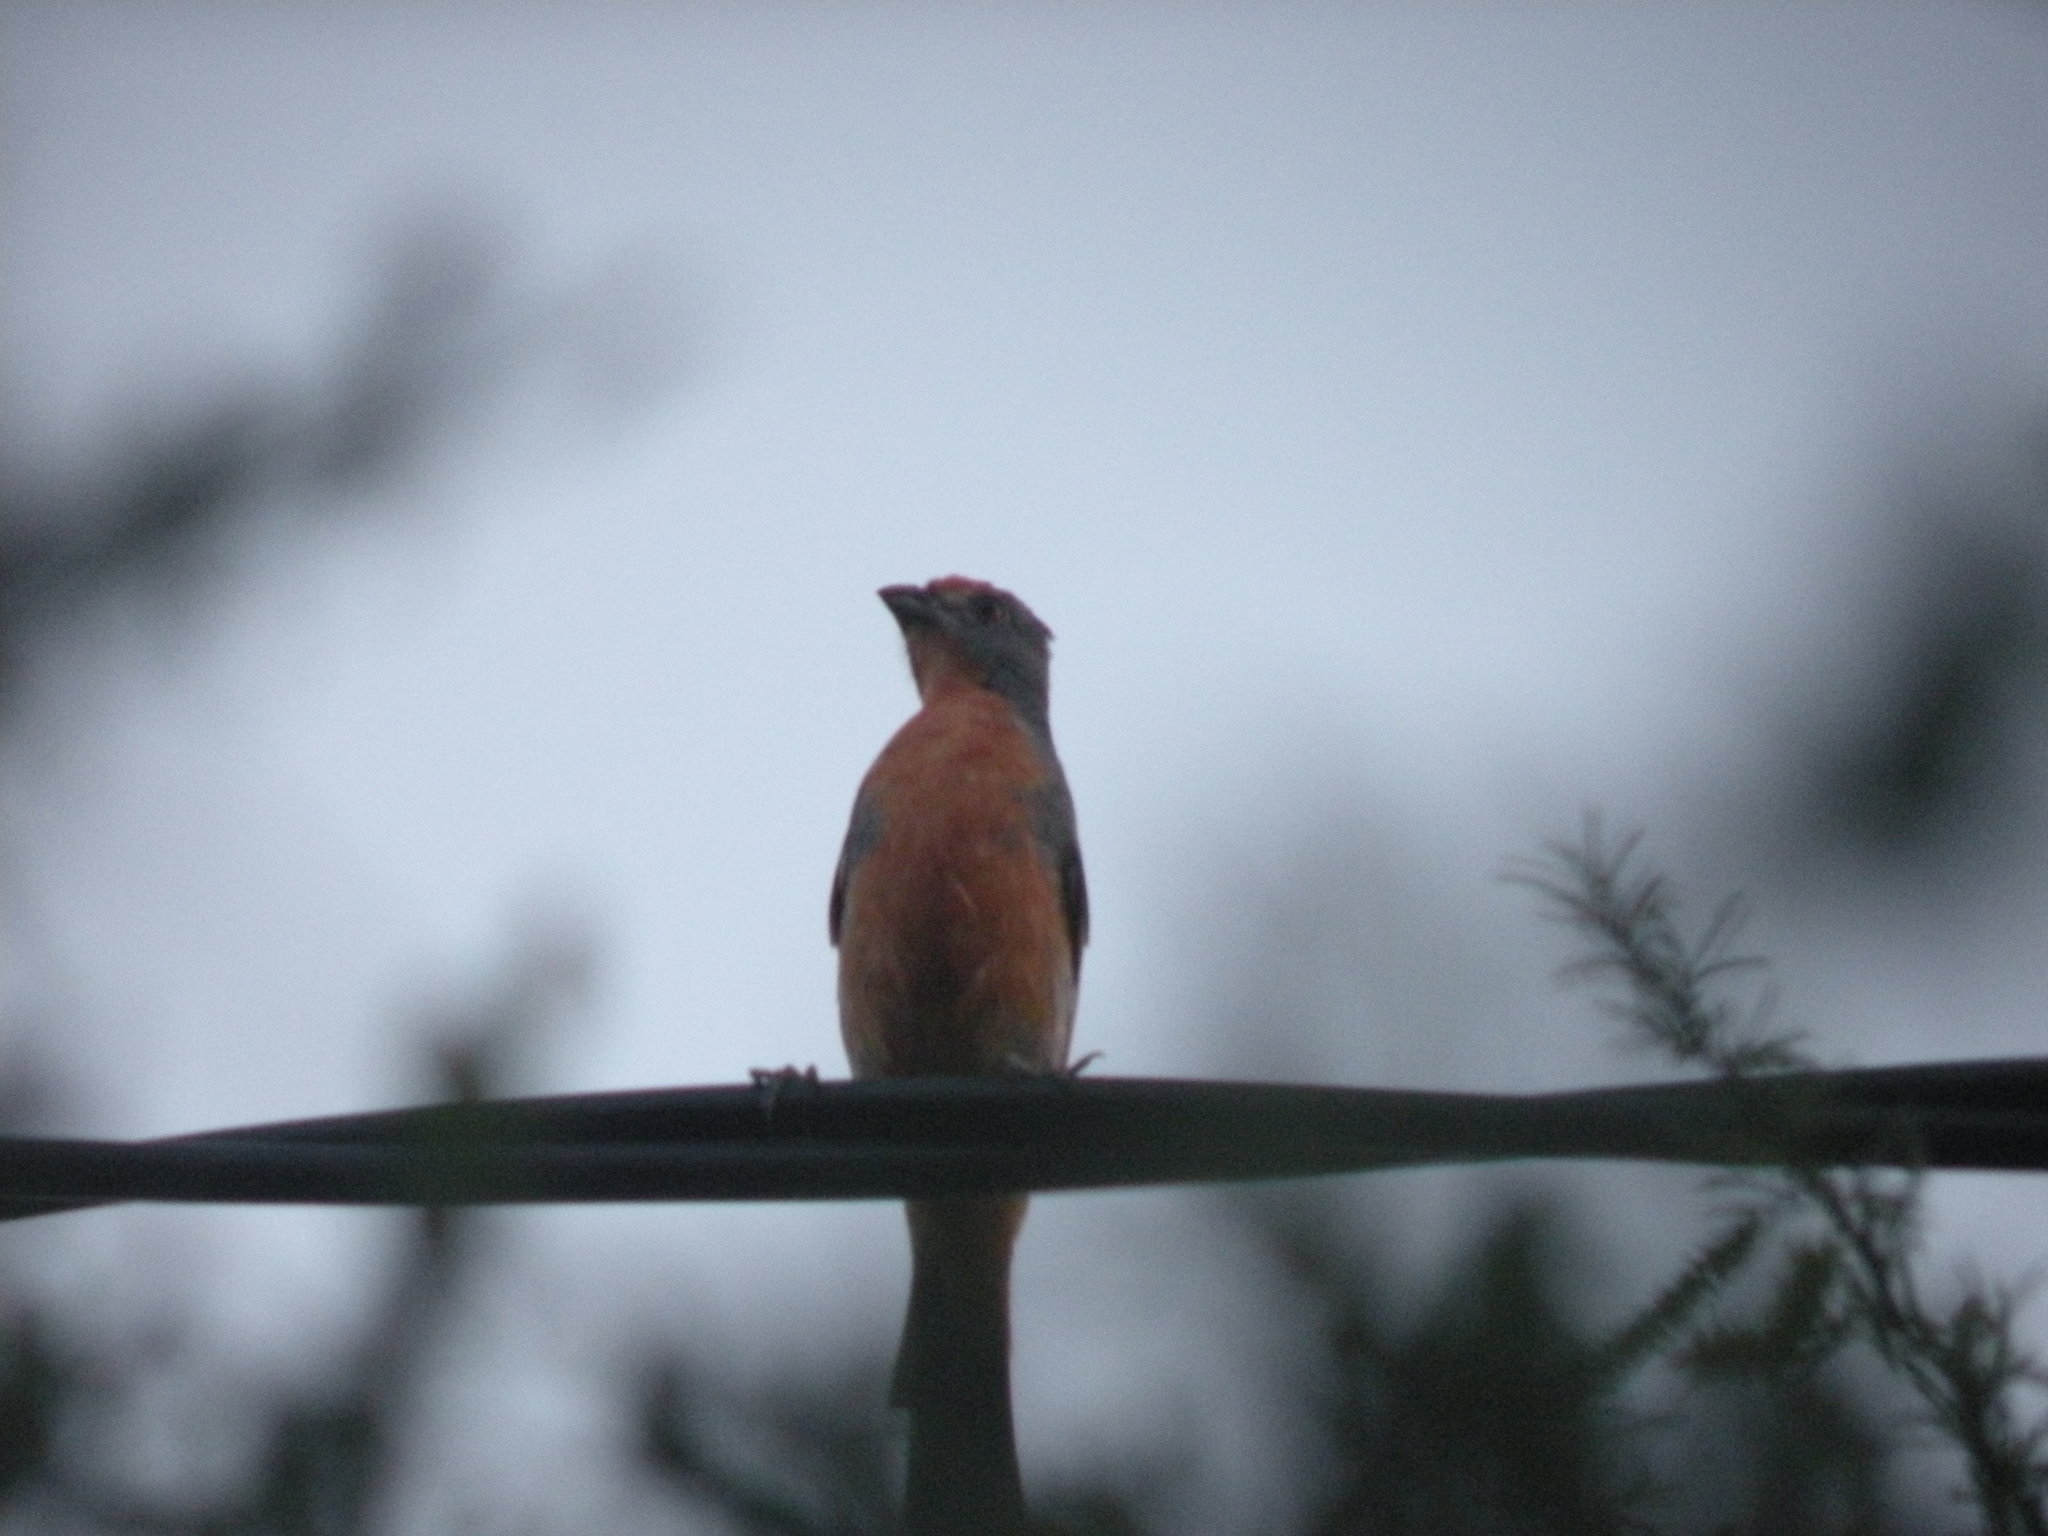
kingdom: Animalia
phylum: Chordata
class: Aves
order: Passeriformes
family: Cotingidae
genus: Phytotoma
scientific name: Phytotoma rutila
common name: White-tipped plantcutter
